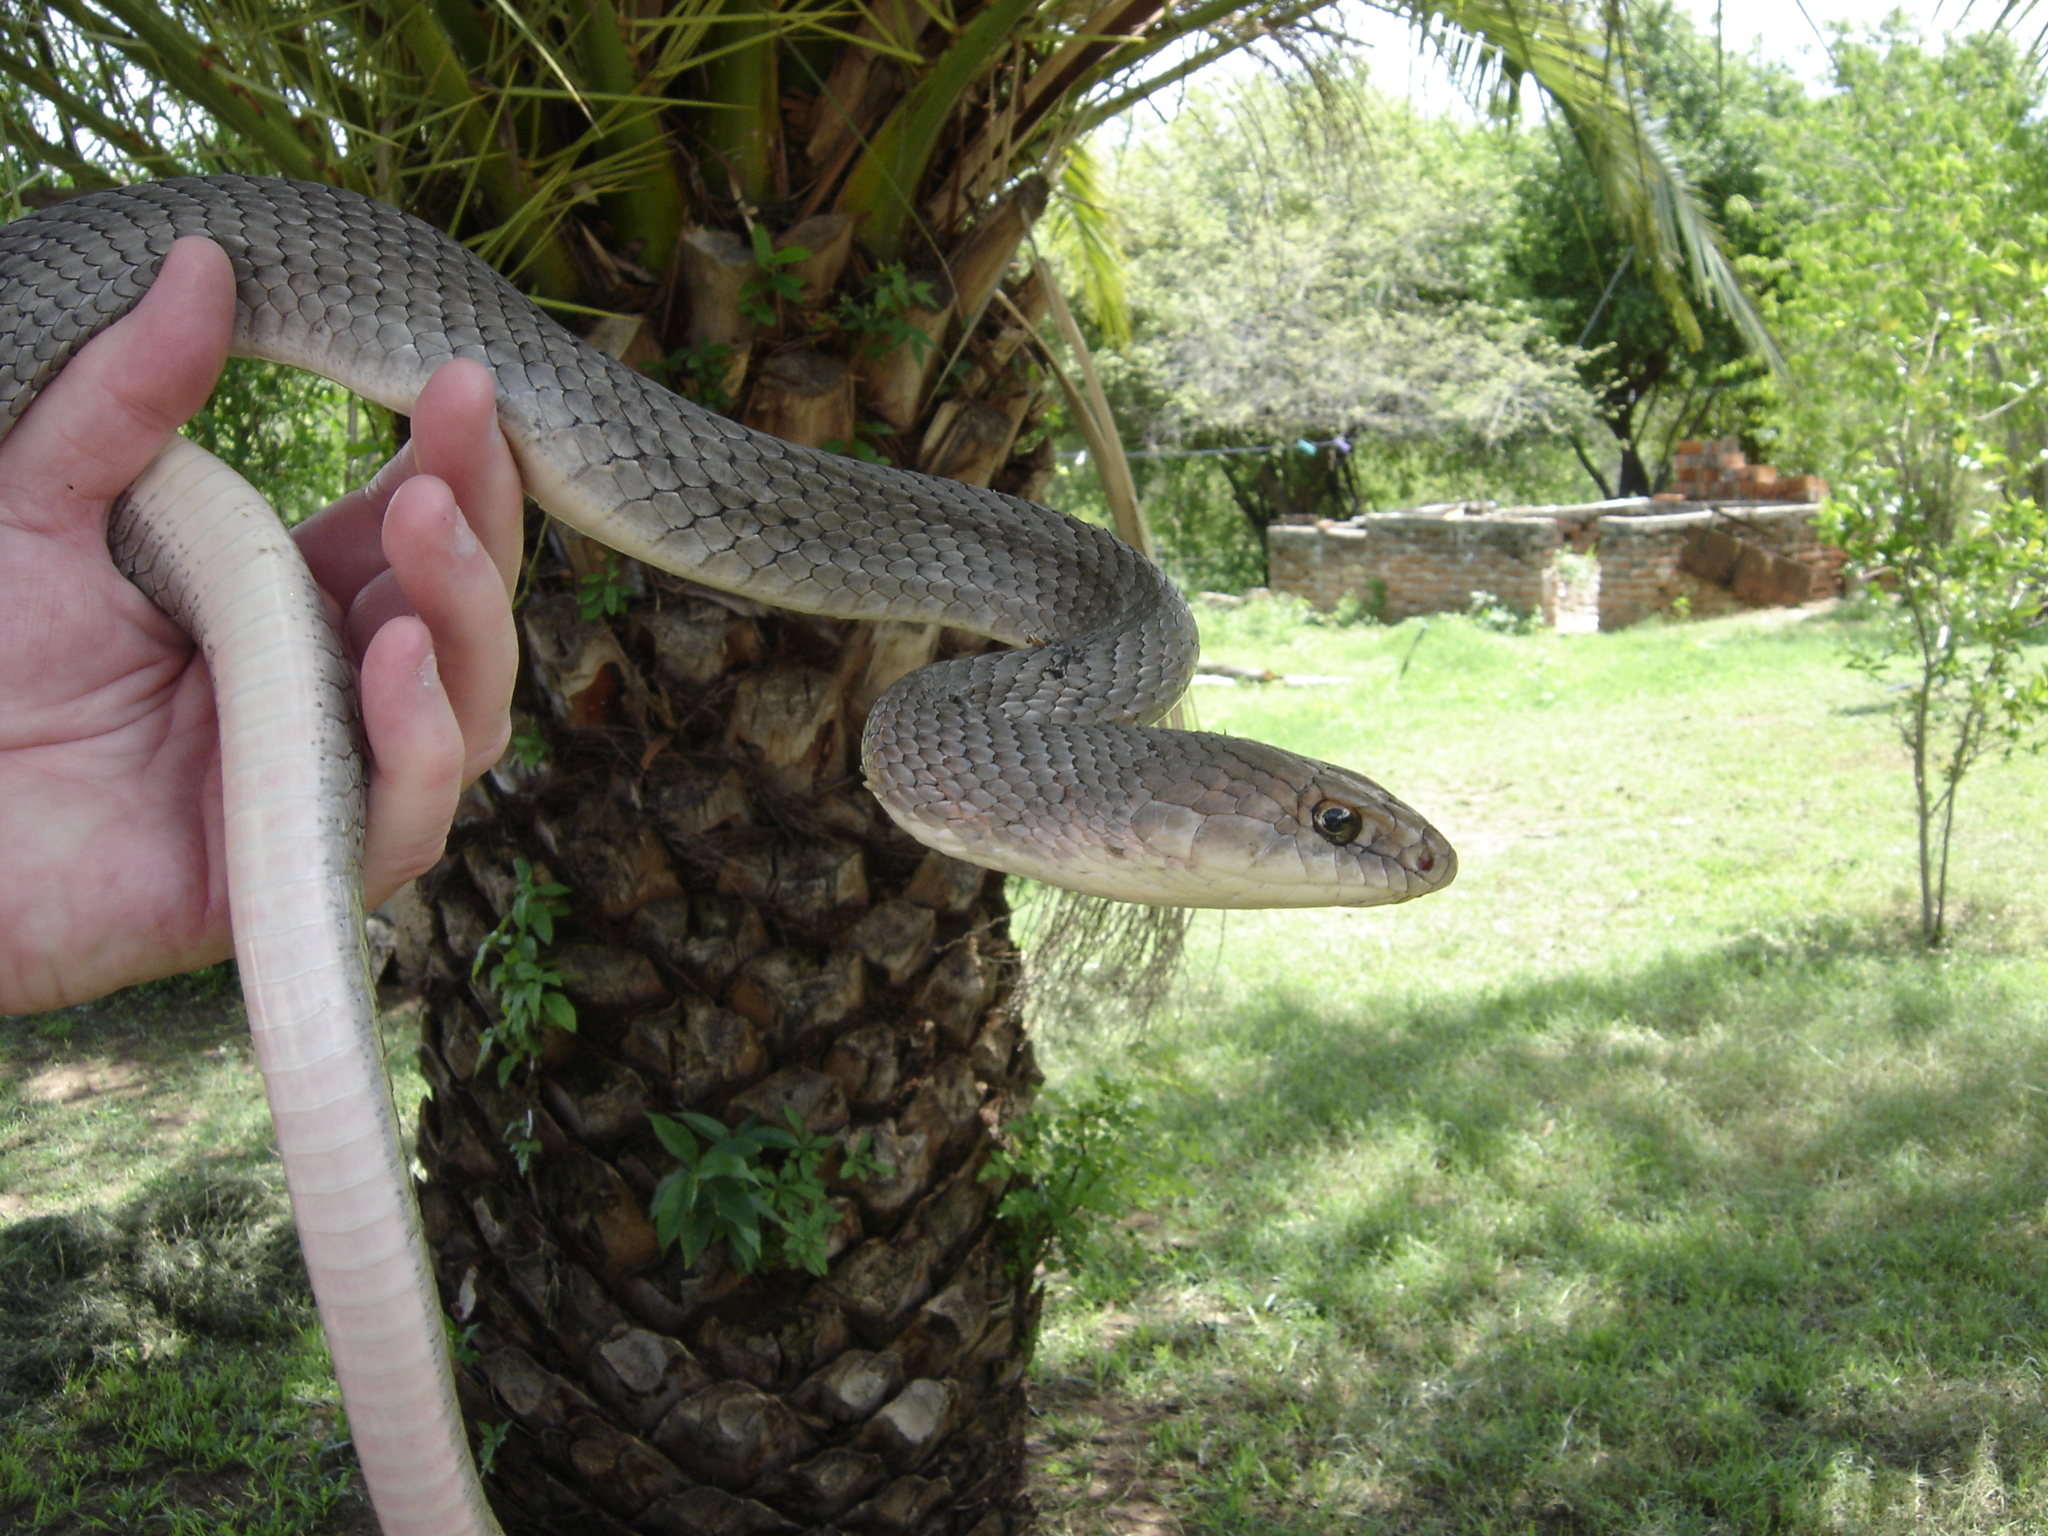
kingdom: Animalia
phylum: Chordata
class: Squamata
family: Colubridae
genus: Masticophis
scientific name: Masticophis mentovarius
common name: Neotropical whip snake
